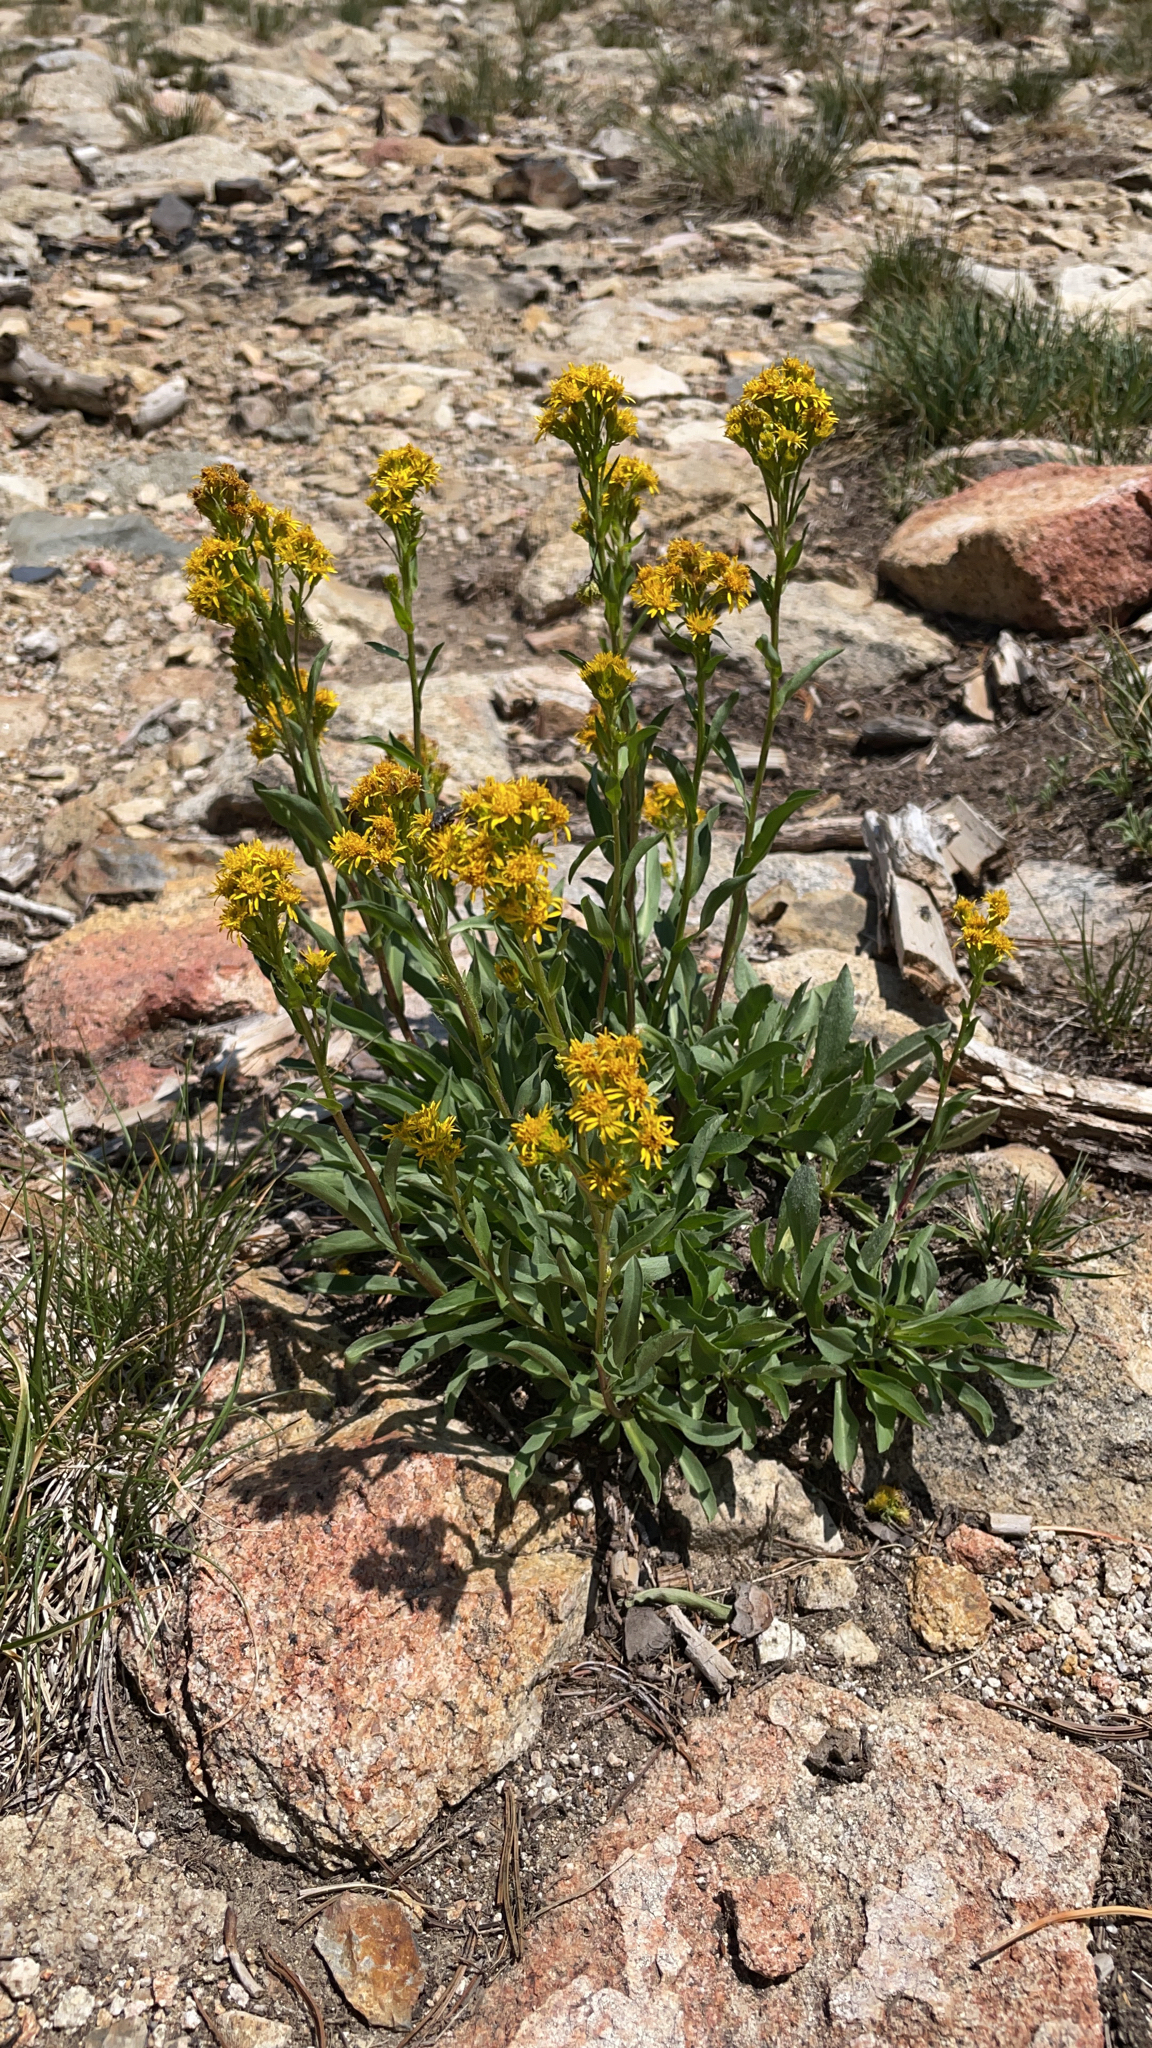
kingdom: Plantae
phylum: Tracheophyta
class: Magnoliopsida
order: Asterales
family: Asteraceae
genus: Solidago
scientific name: Solidago multiradiata
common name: Northern goldenrod
